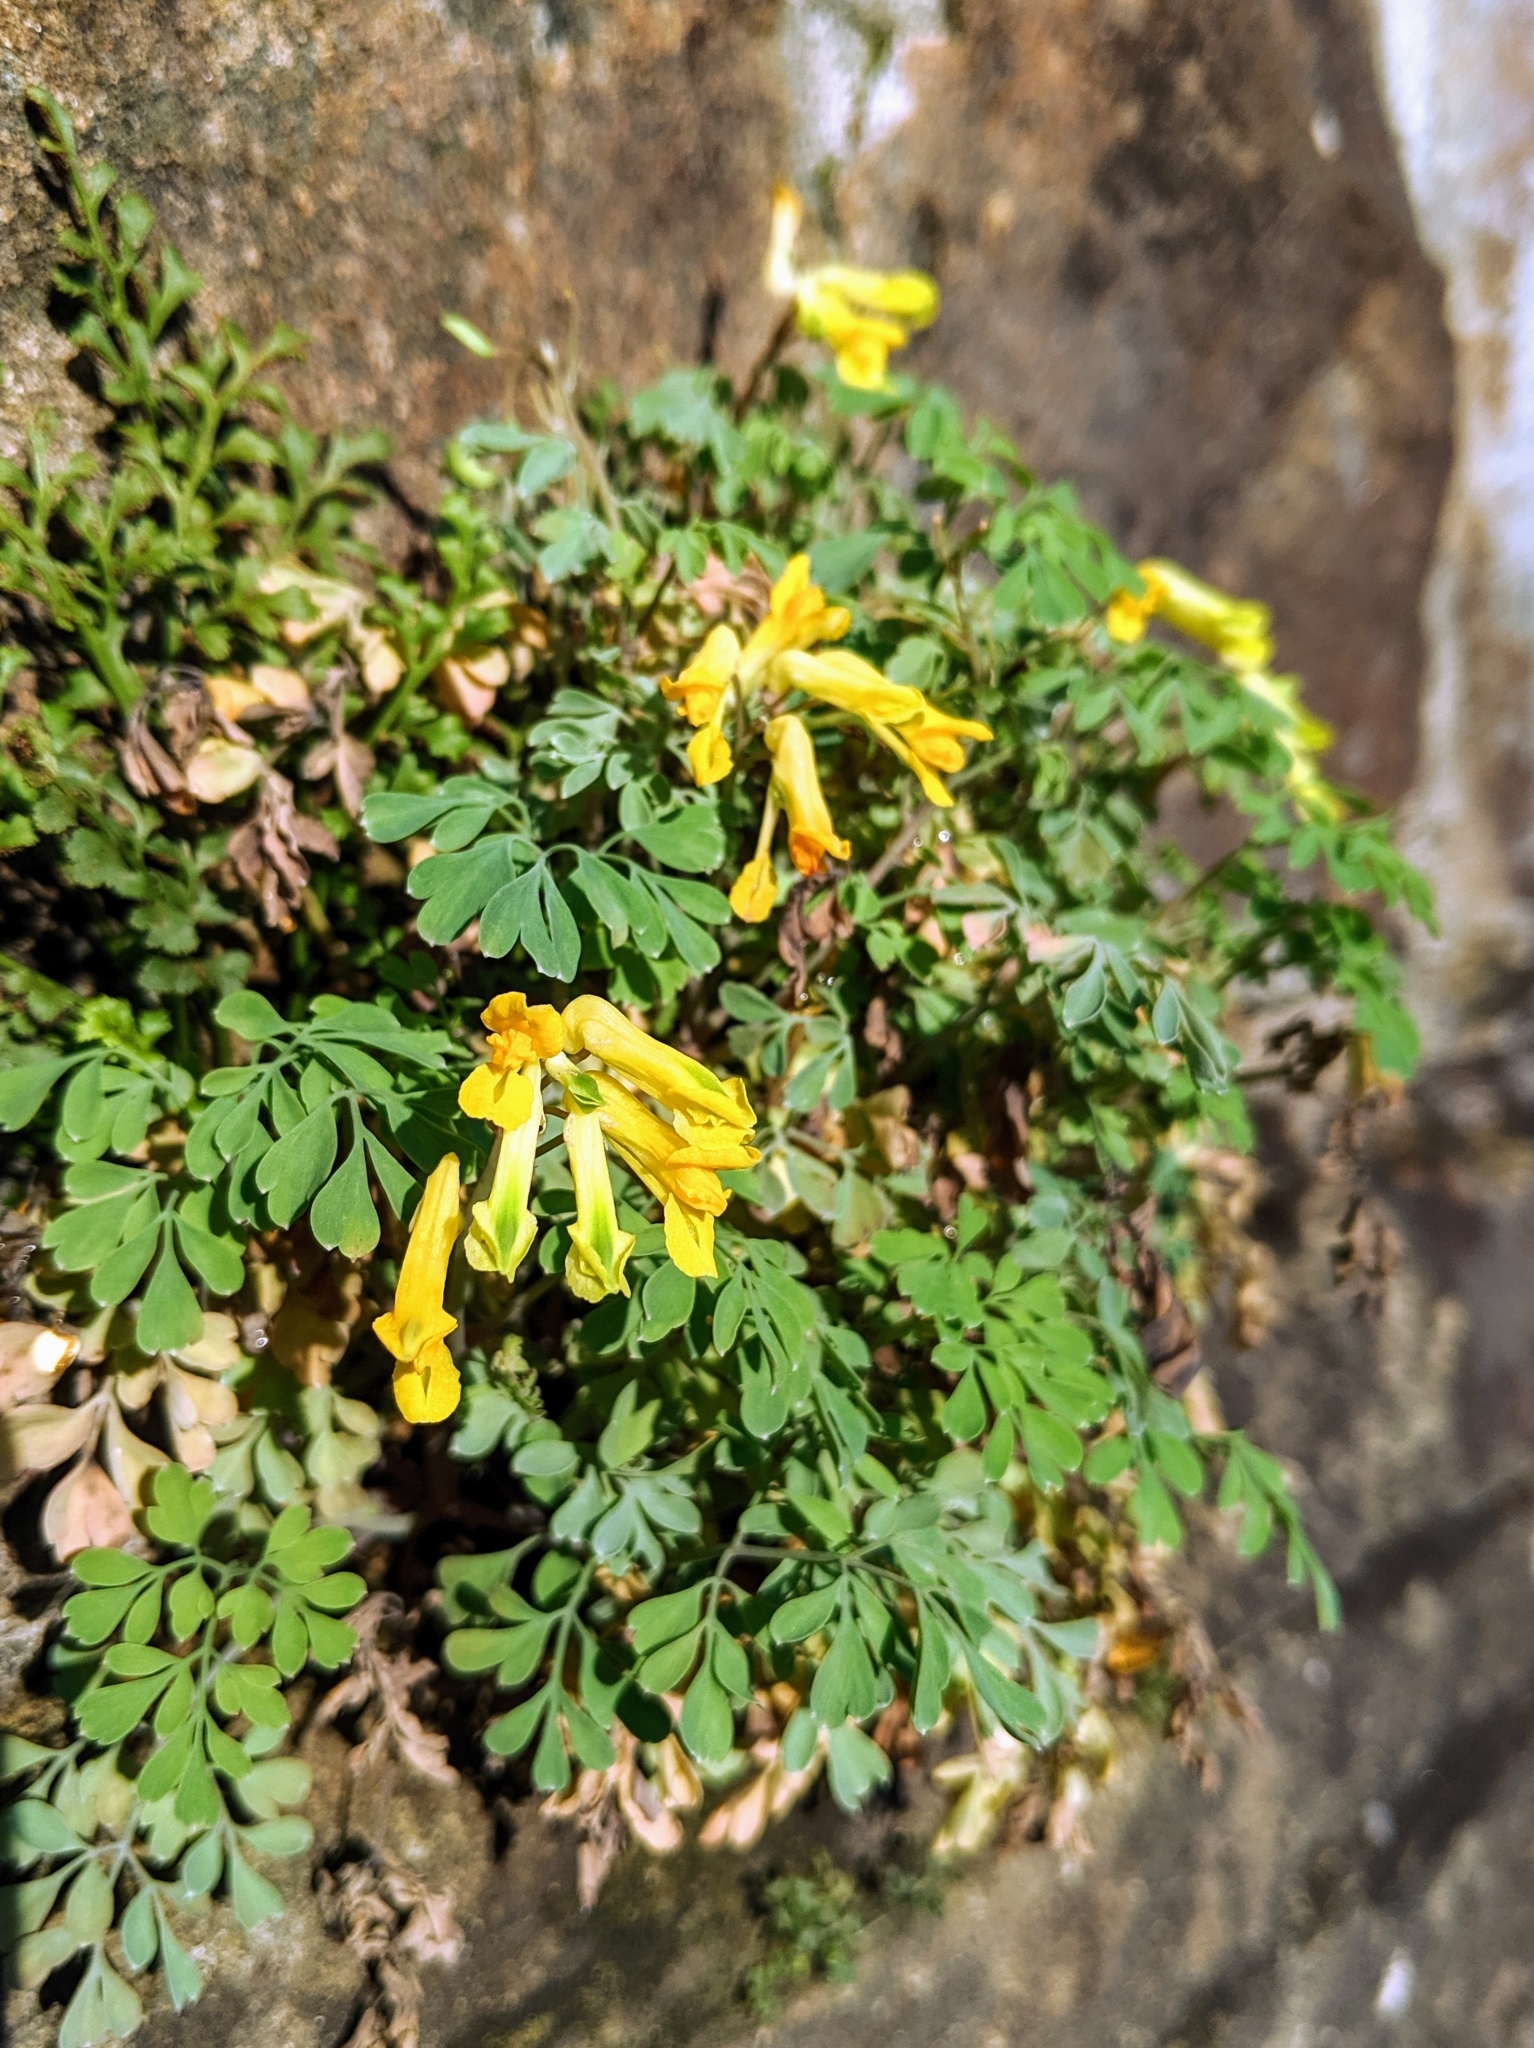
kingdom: Plantae
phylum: Tracheophyta
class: Magnoliopsida
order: Ranunculales
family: Papaveraceae
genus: Pseudofumaria
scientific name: Pseudofumaria lutea
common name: Yellow corydalis
